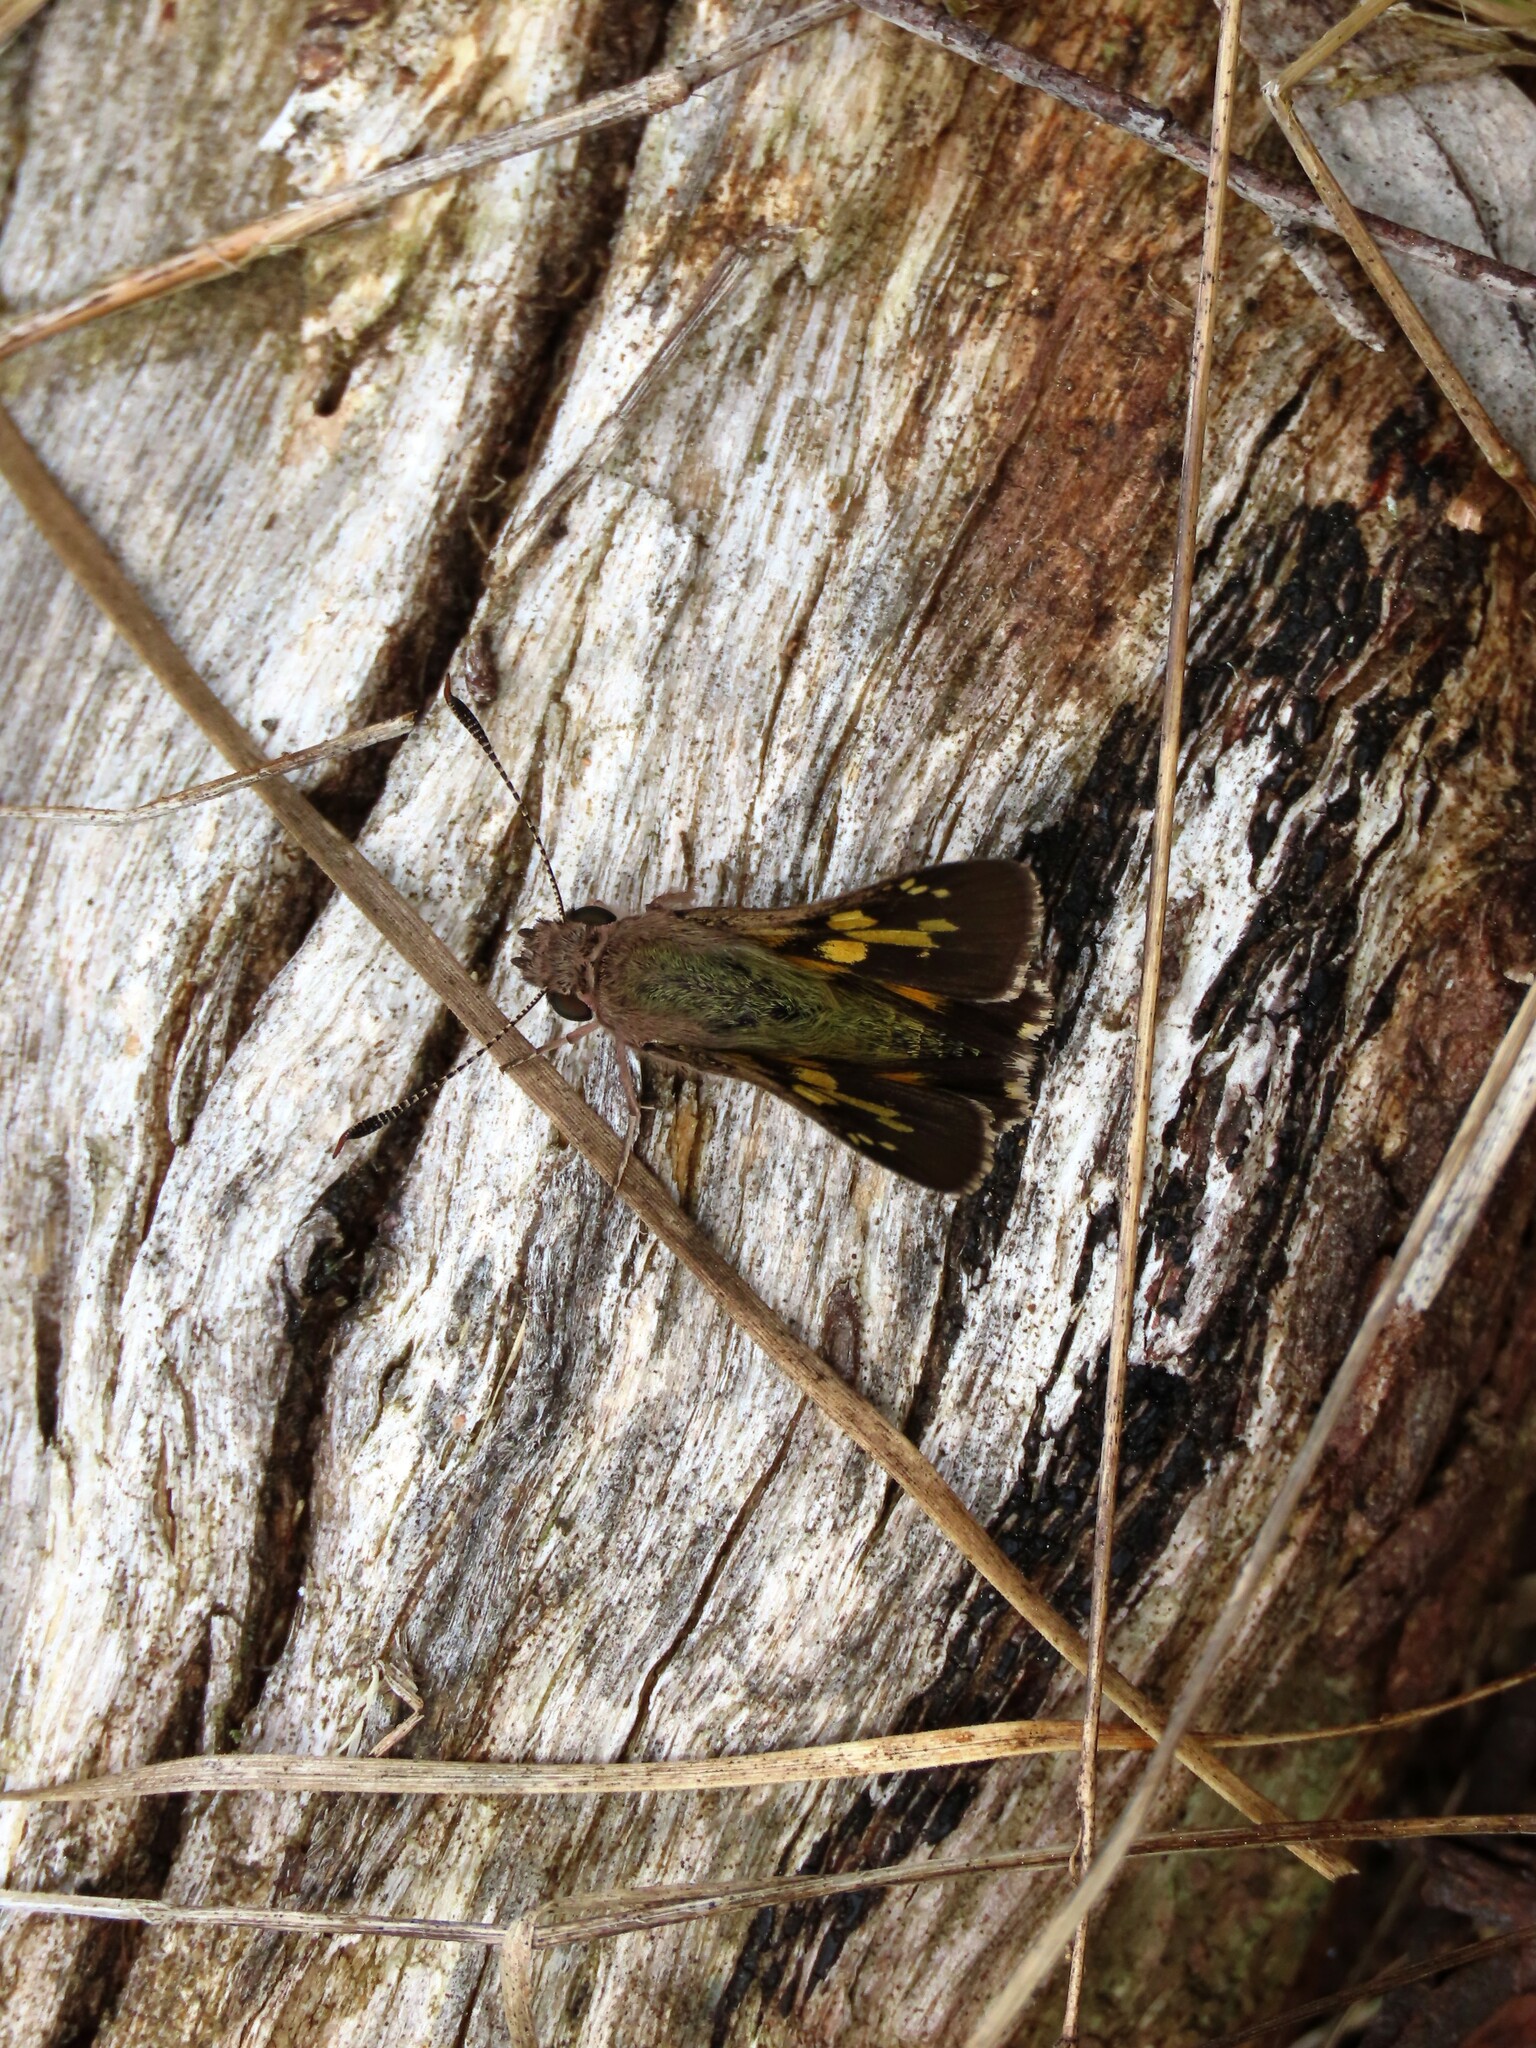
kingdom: Animalia
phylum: Arthropoda
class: Insecta
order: Lepidoptera
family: Hesperiidae
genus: Trapezites
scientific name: Trapezites phigalioides
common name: Montane ochre
